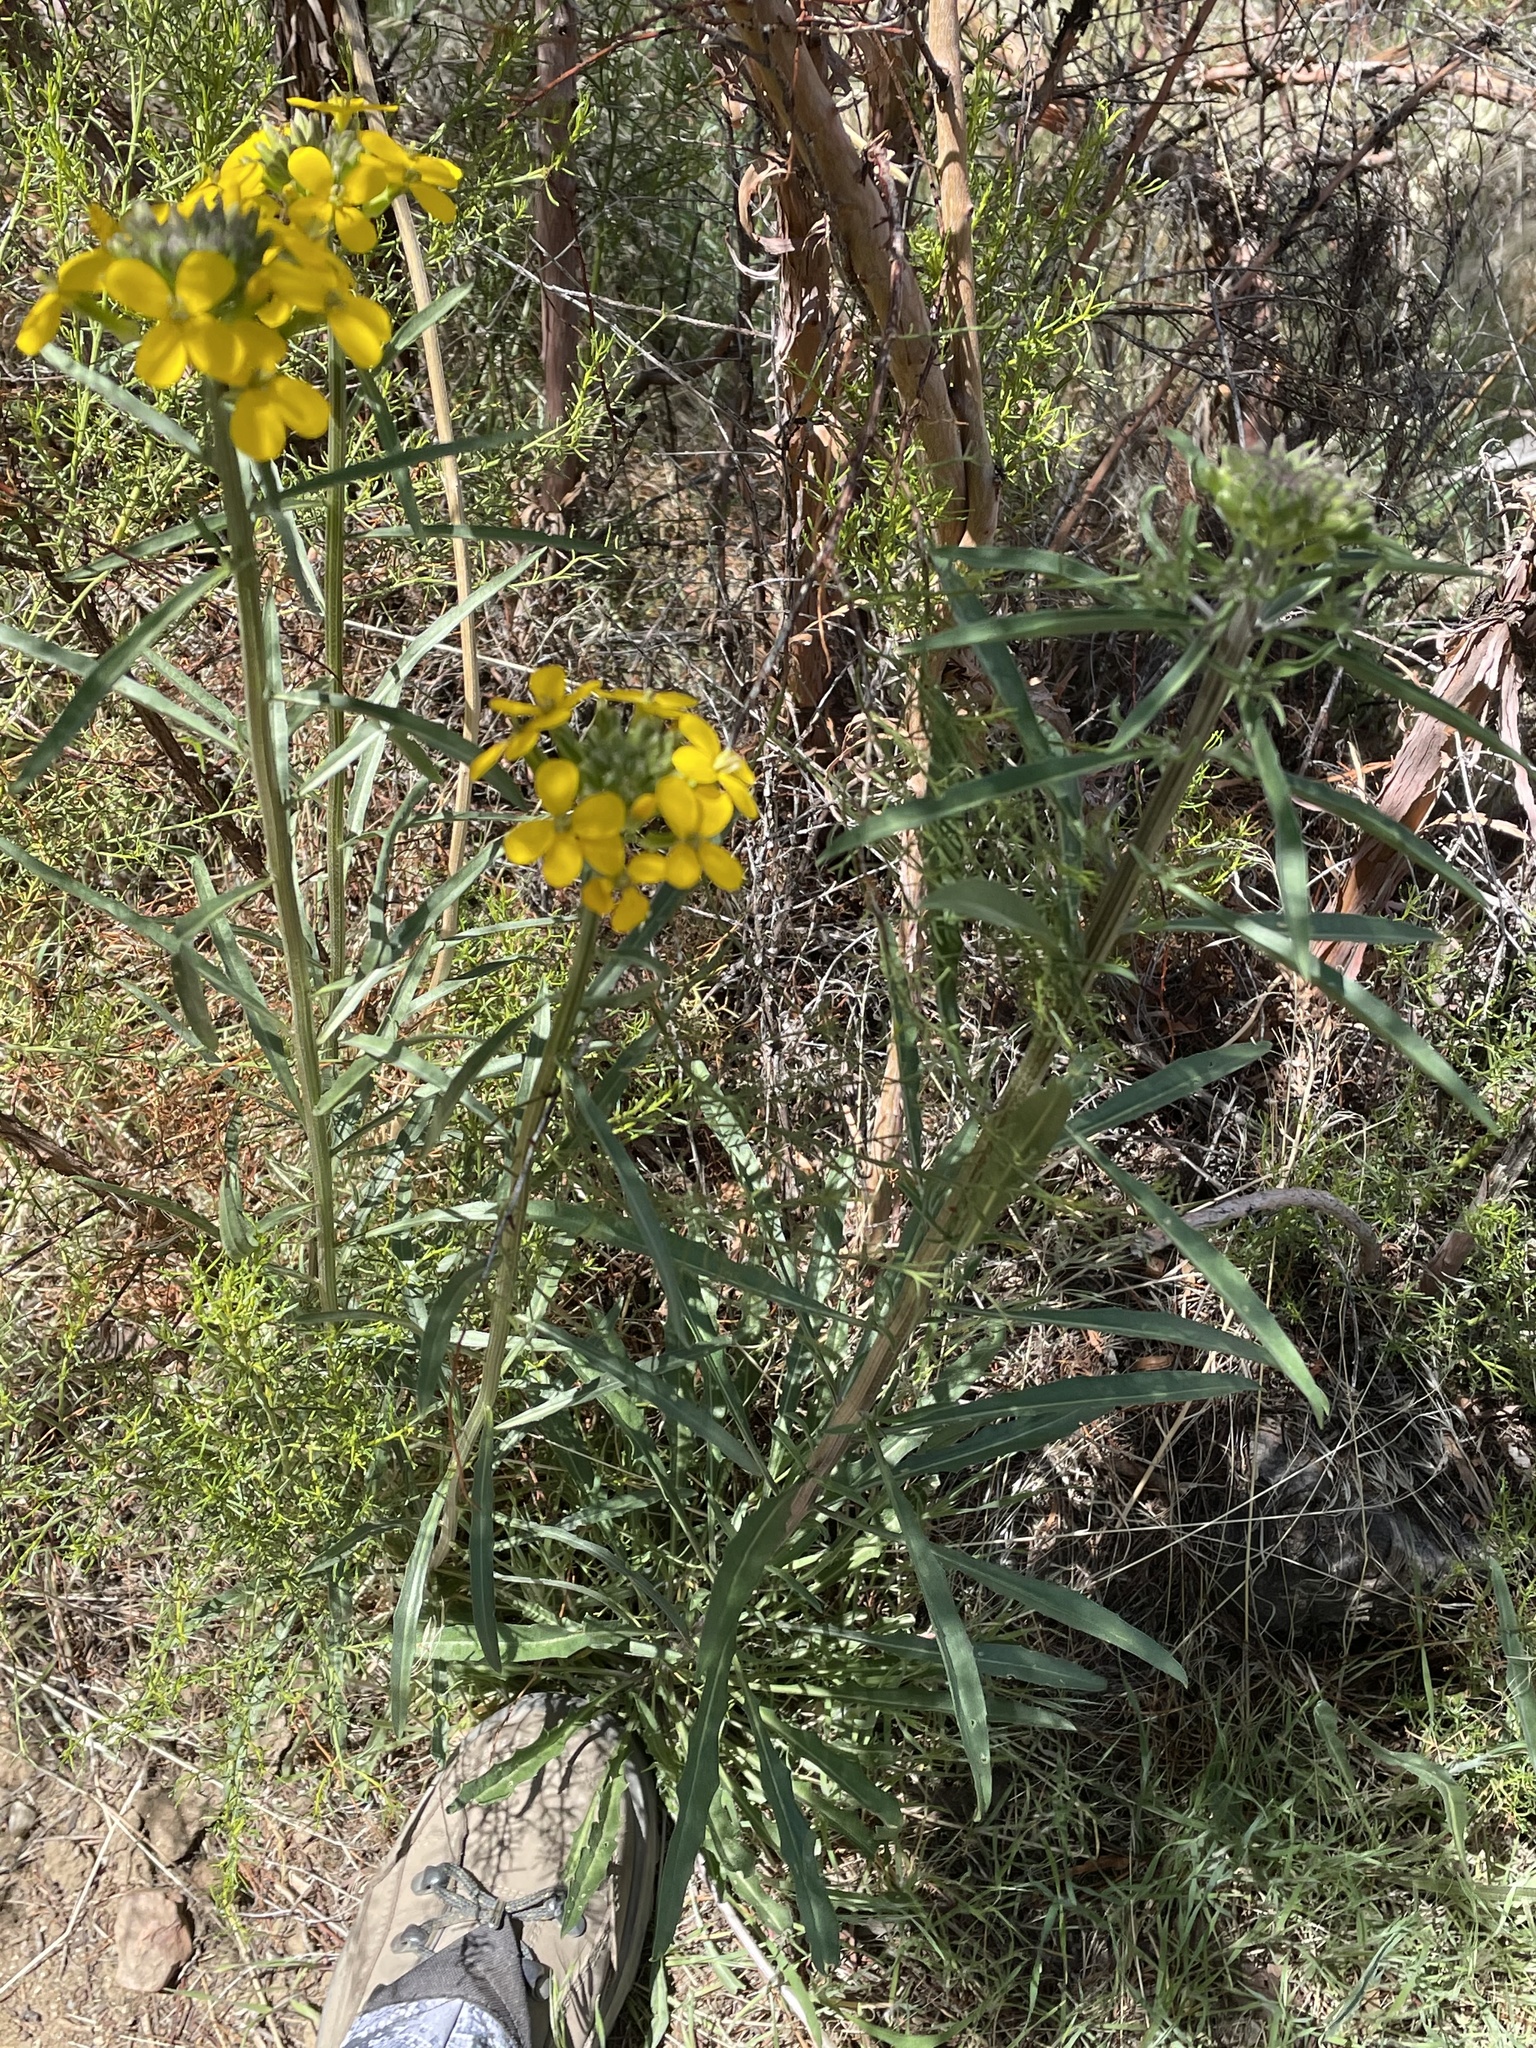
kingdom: Plantae
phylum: Tracheophyta
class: Magnoliopsida
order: Brassicales
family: Brassicaceae
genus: Erysimum
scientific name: Erysimum capitatum
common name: Western wallflower
